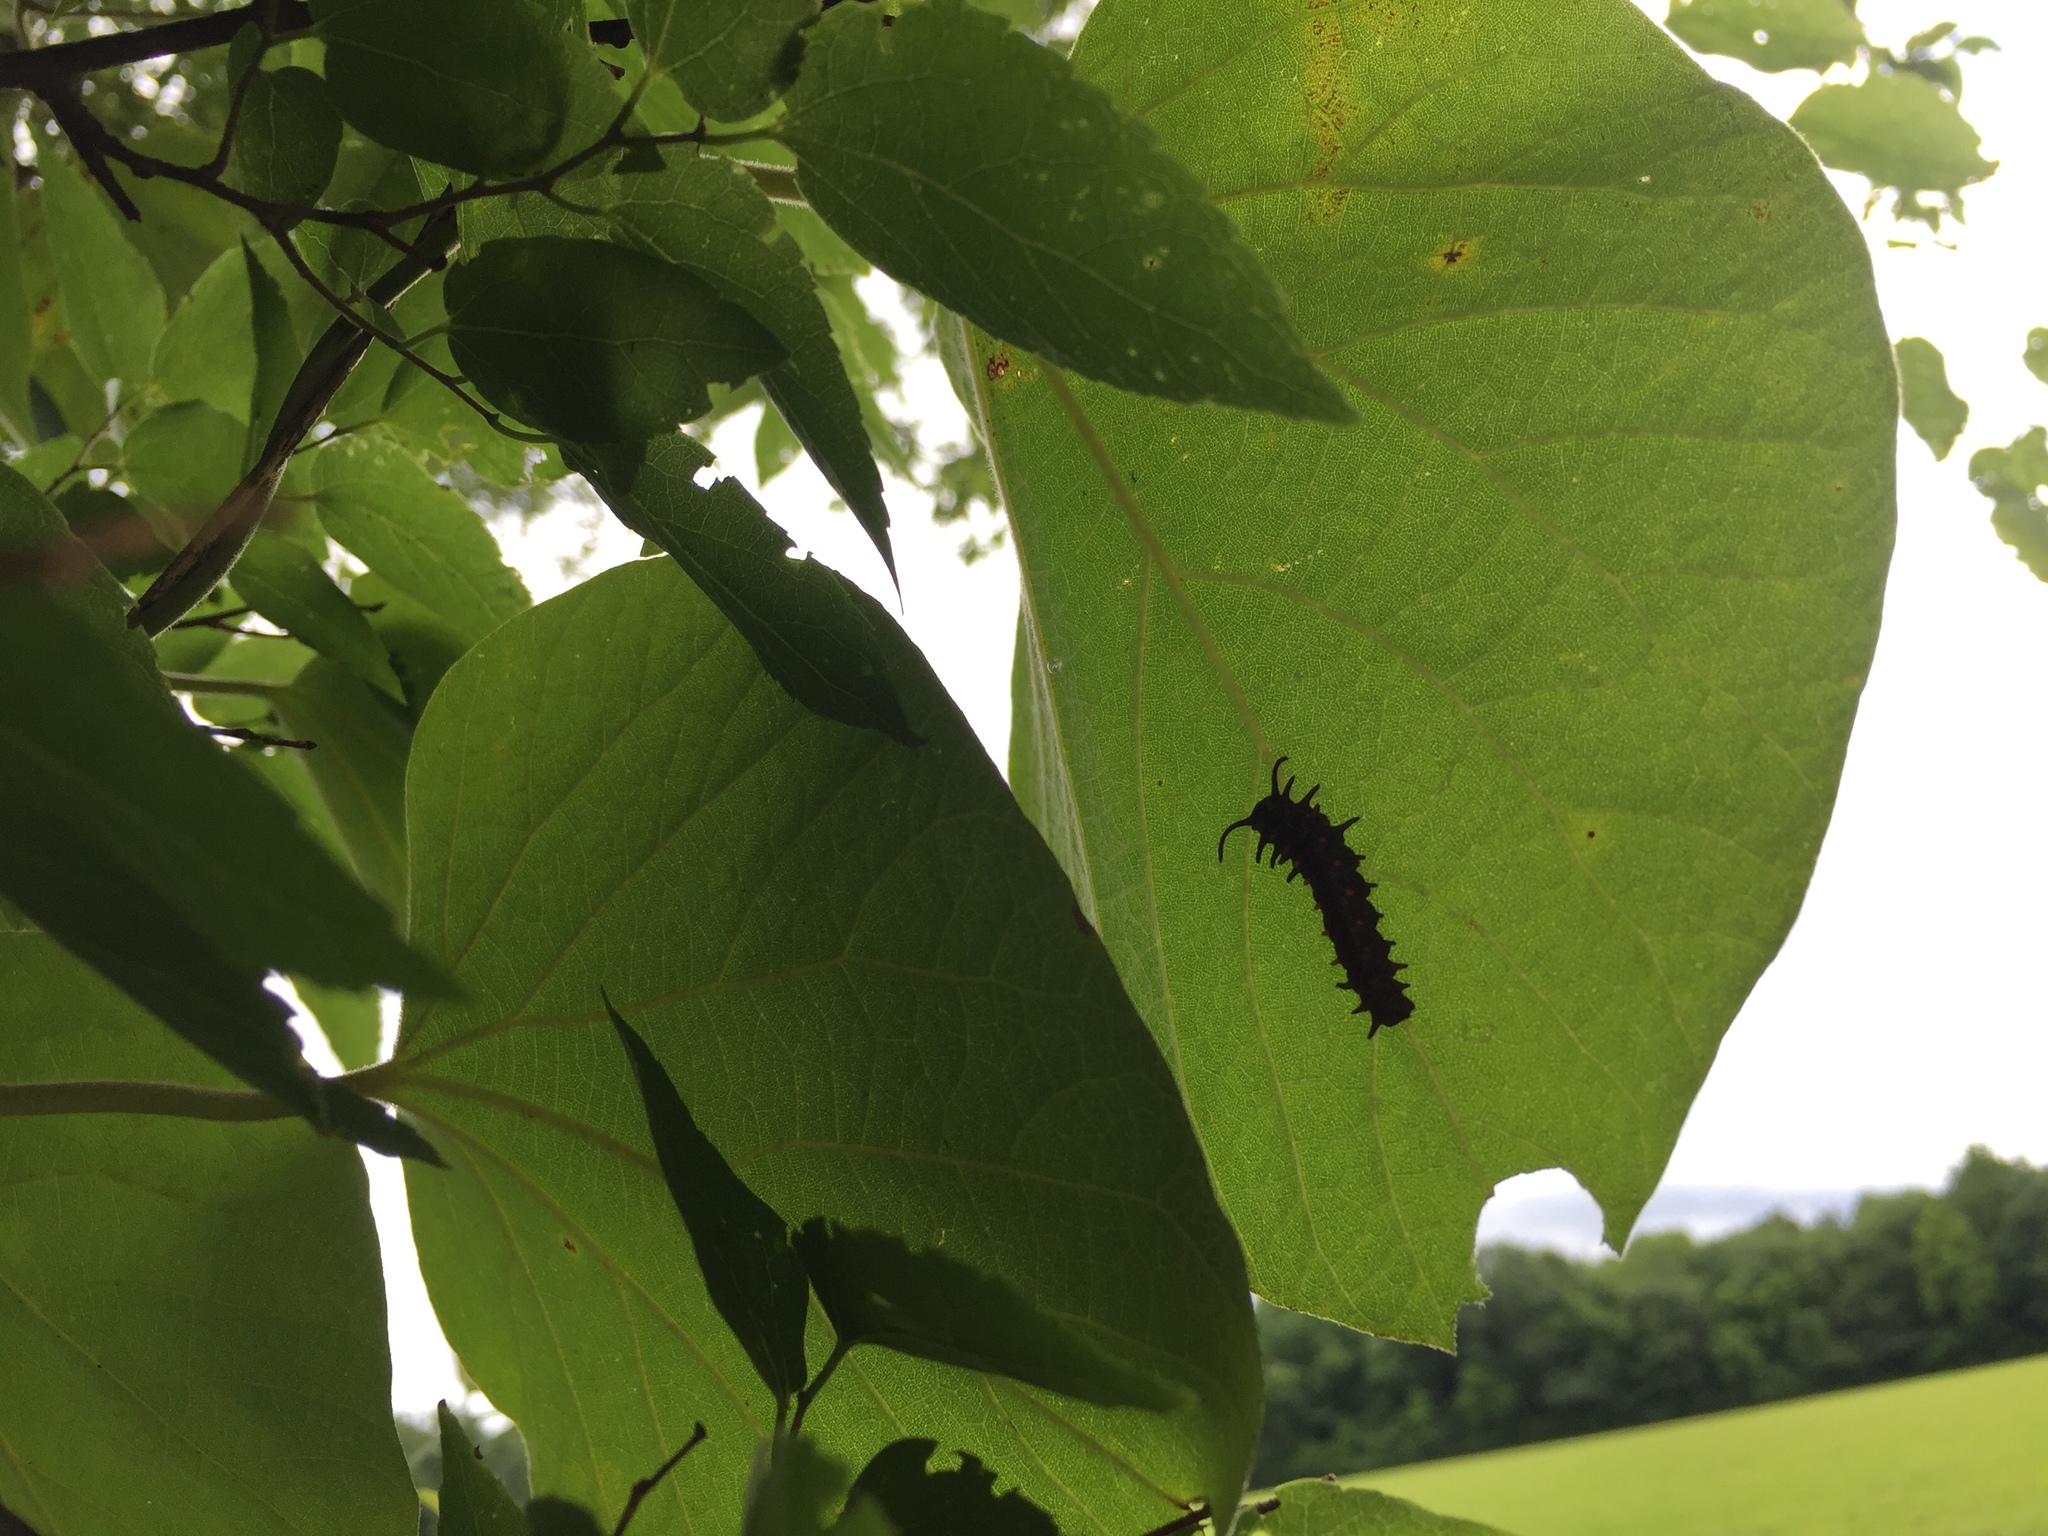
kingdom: Animalia
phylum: Arthropoda
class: Insecta
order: Lepidoptera
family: Papilionidae
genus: Battus
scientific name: Battus philenor
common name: Pipevine swallowtail
